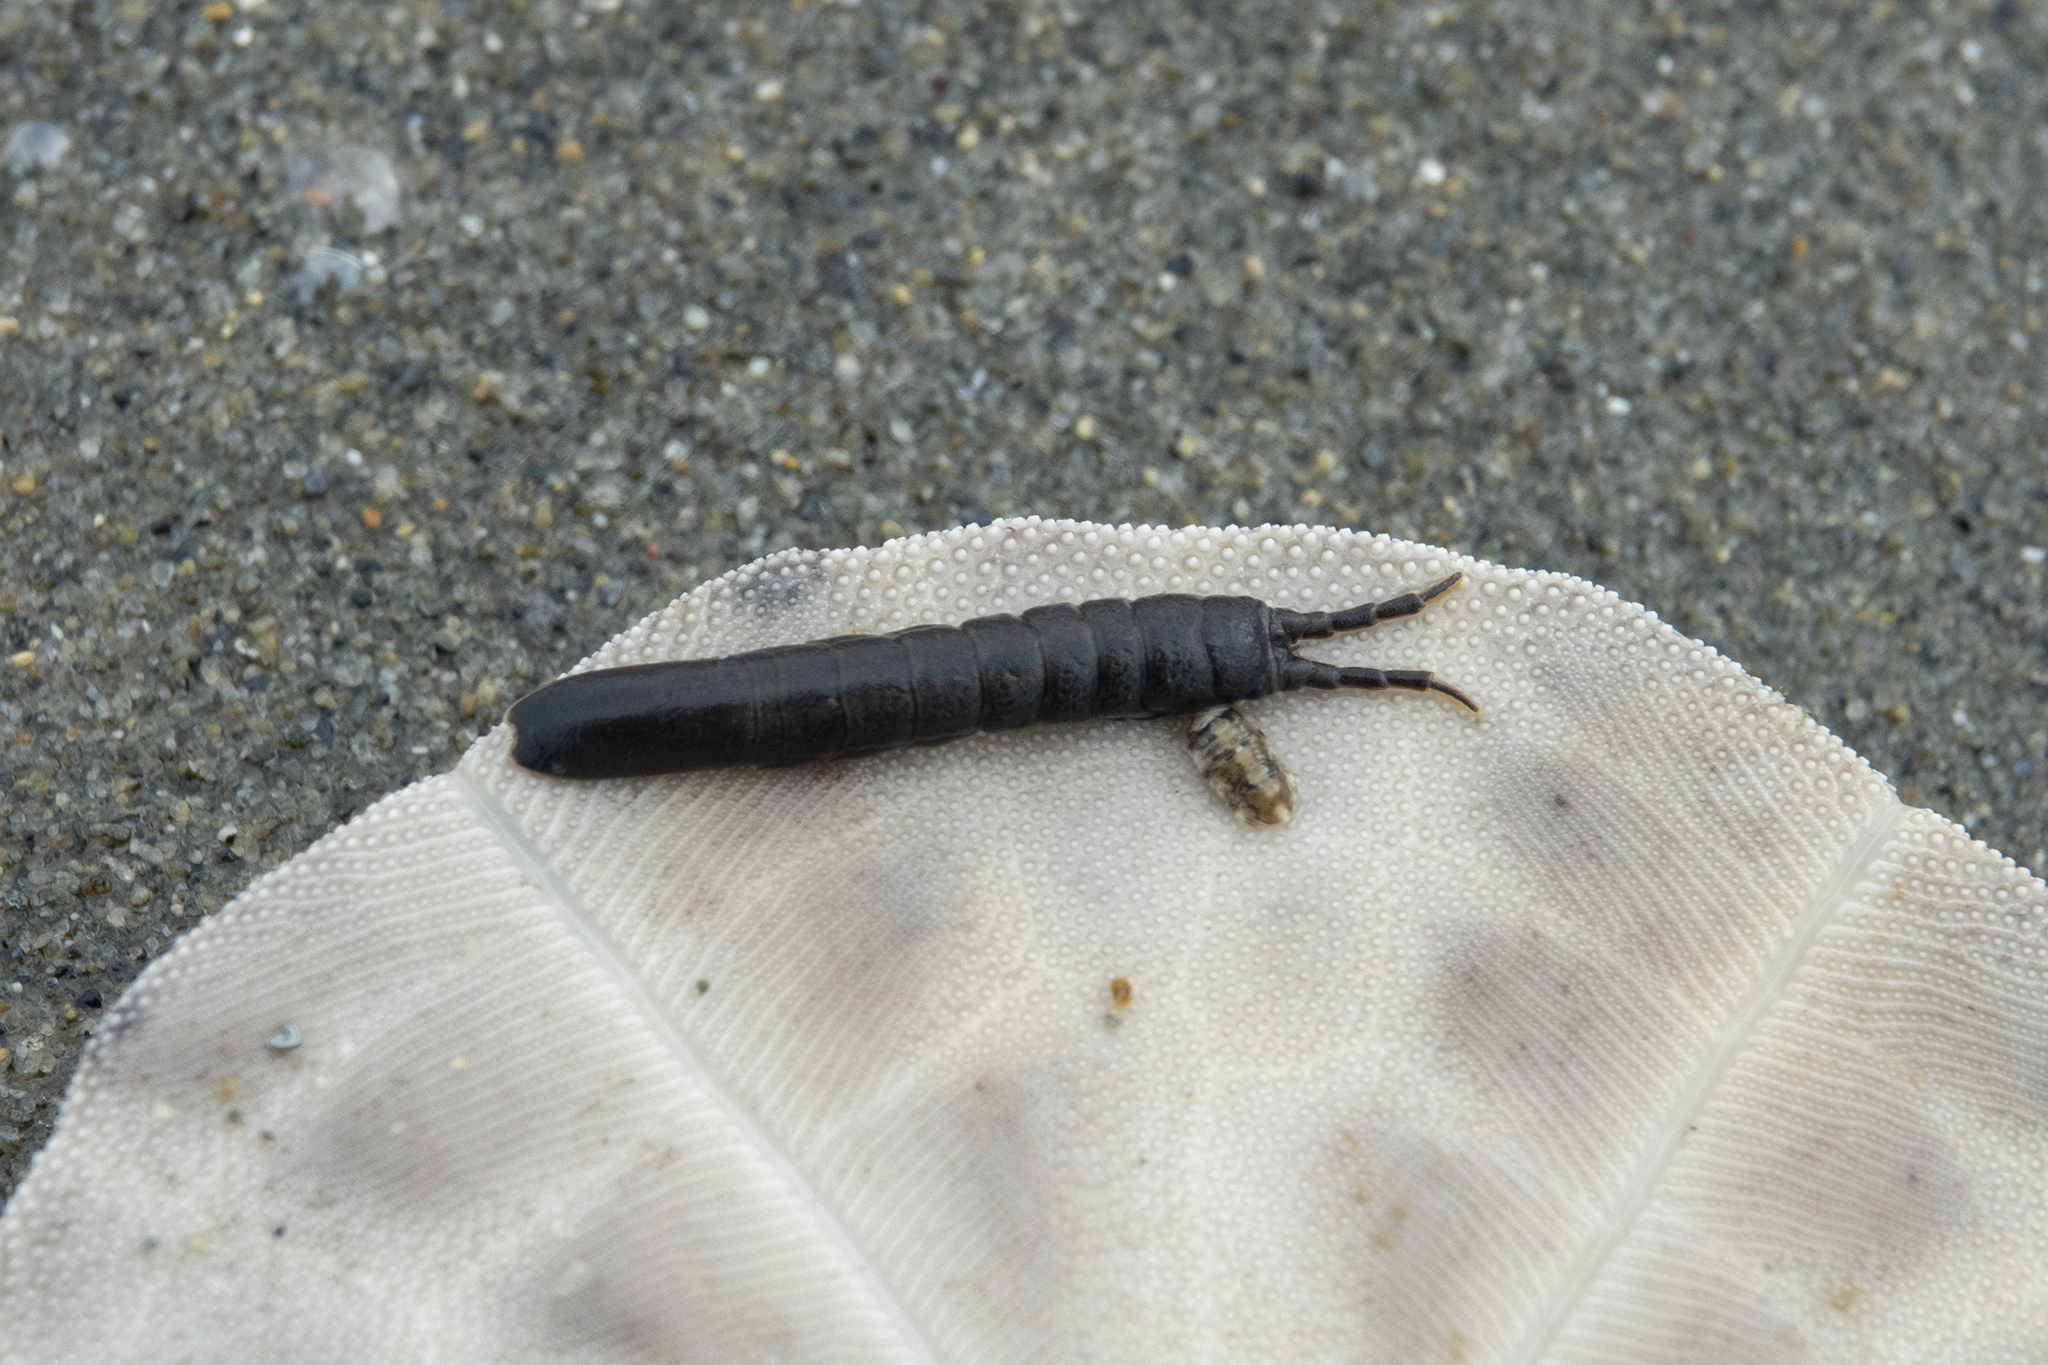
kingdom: Animalia
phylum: Arthropoda
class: Malacostraca
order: Isopoda
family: Idoteidae
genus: Batedotea
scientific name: Batedotea elongata
